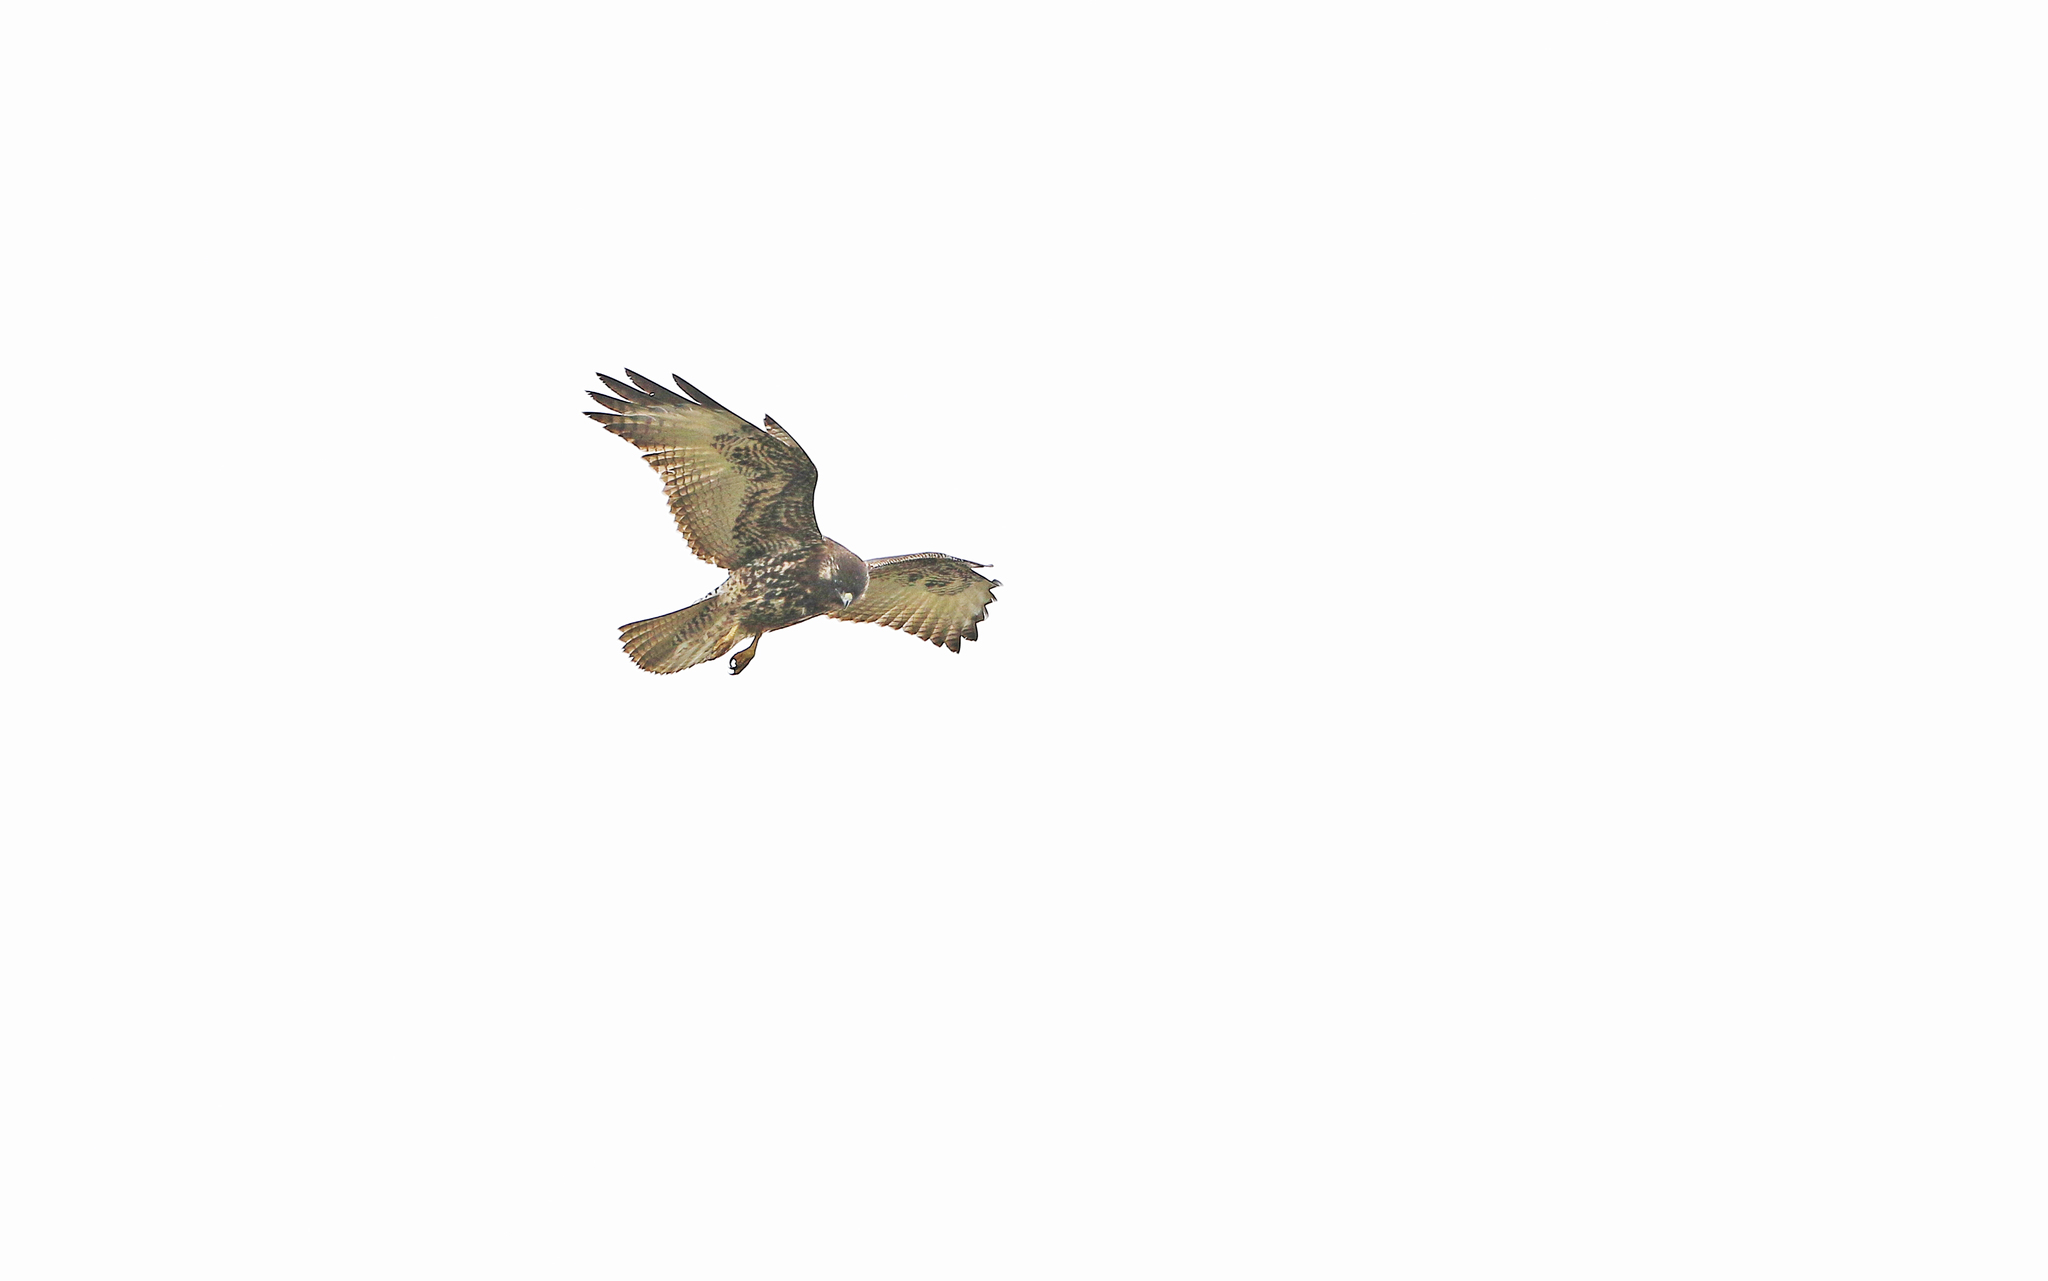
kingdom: Animalia
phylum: Chordata
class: Aves
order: Accipitriformes
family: Accipitridae
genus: Buteo
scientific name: Buteo polyosoma
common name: Variable hawk
